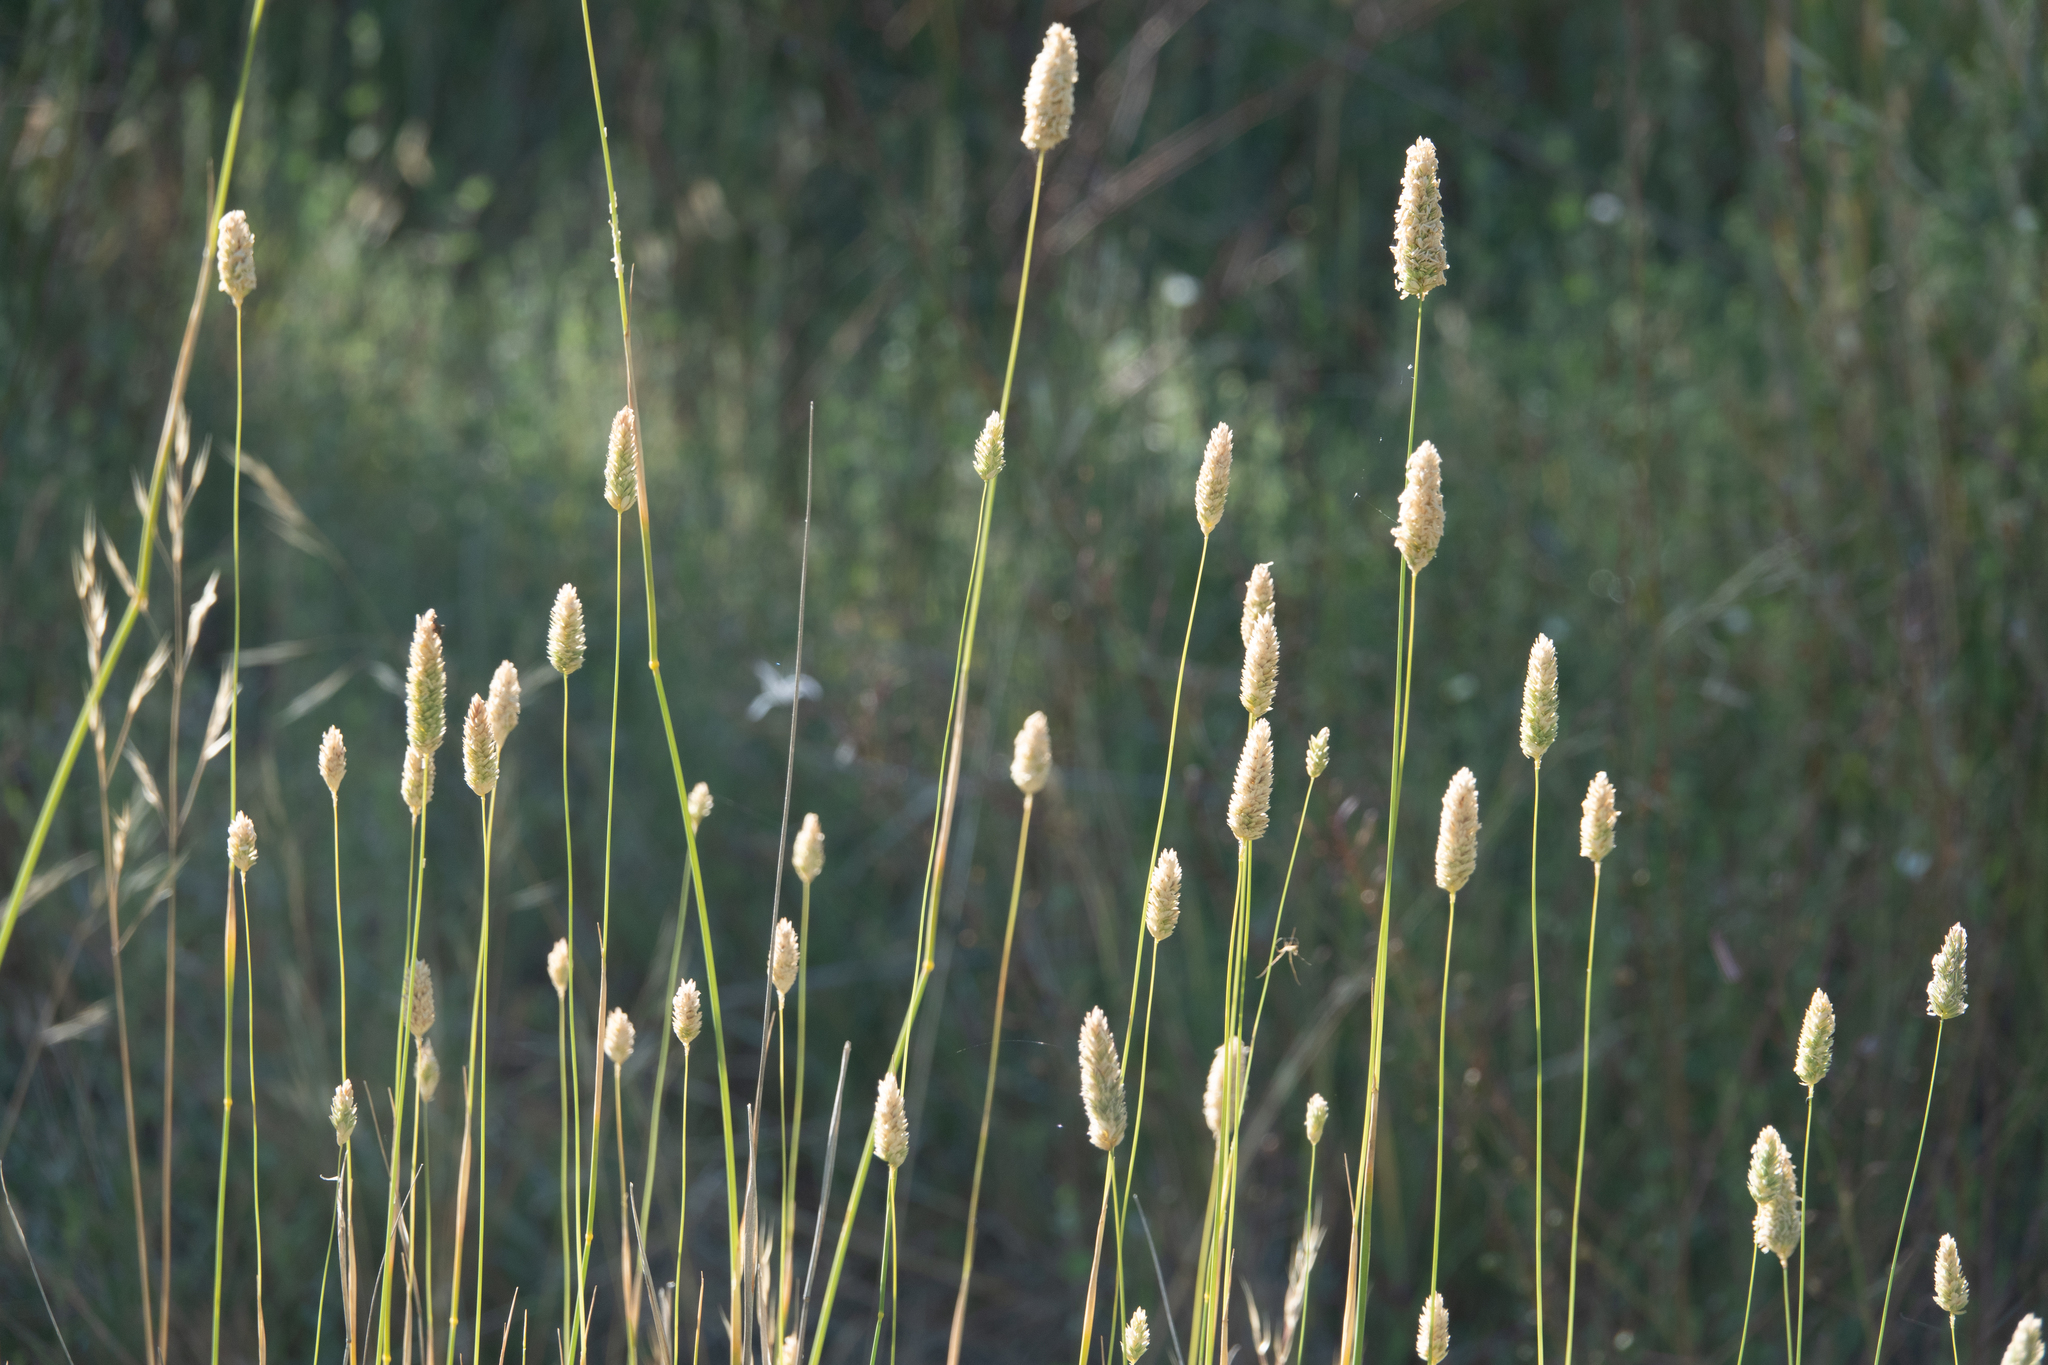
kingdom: Plantae
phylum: Tracheophyta
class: Liliopsida
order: Poales
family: Poaceae
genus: Phalaris
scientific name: Phalaris aquatica
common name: Bulbous canary-grass
